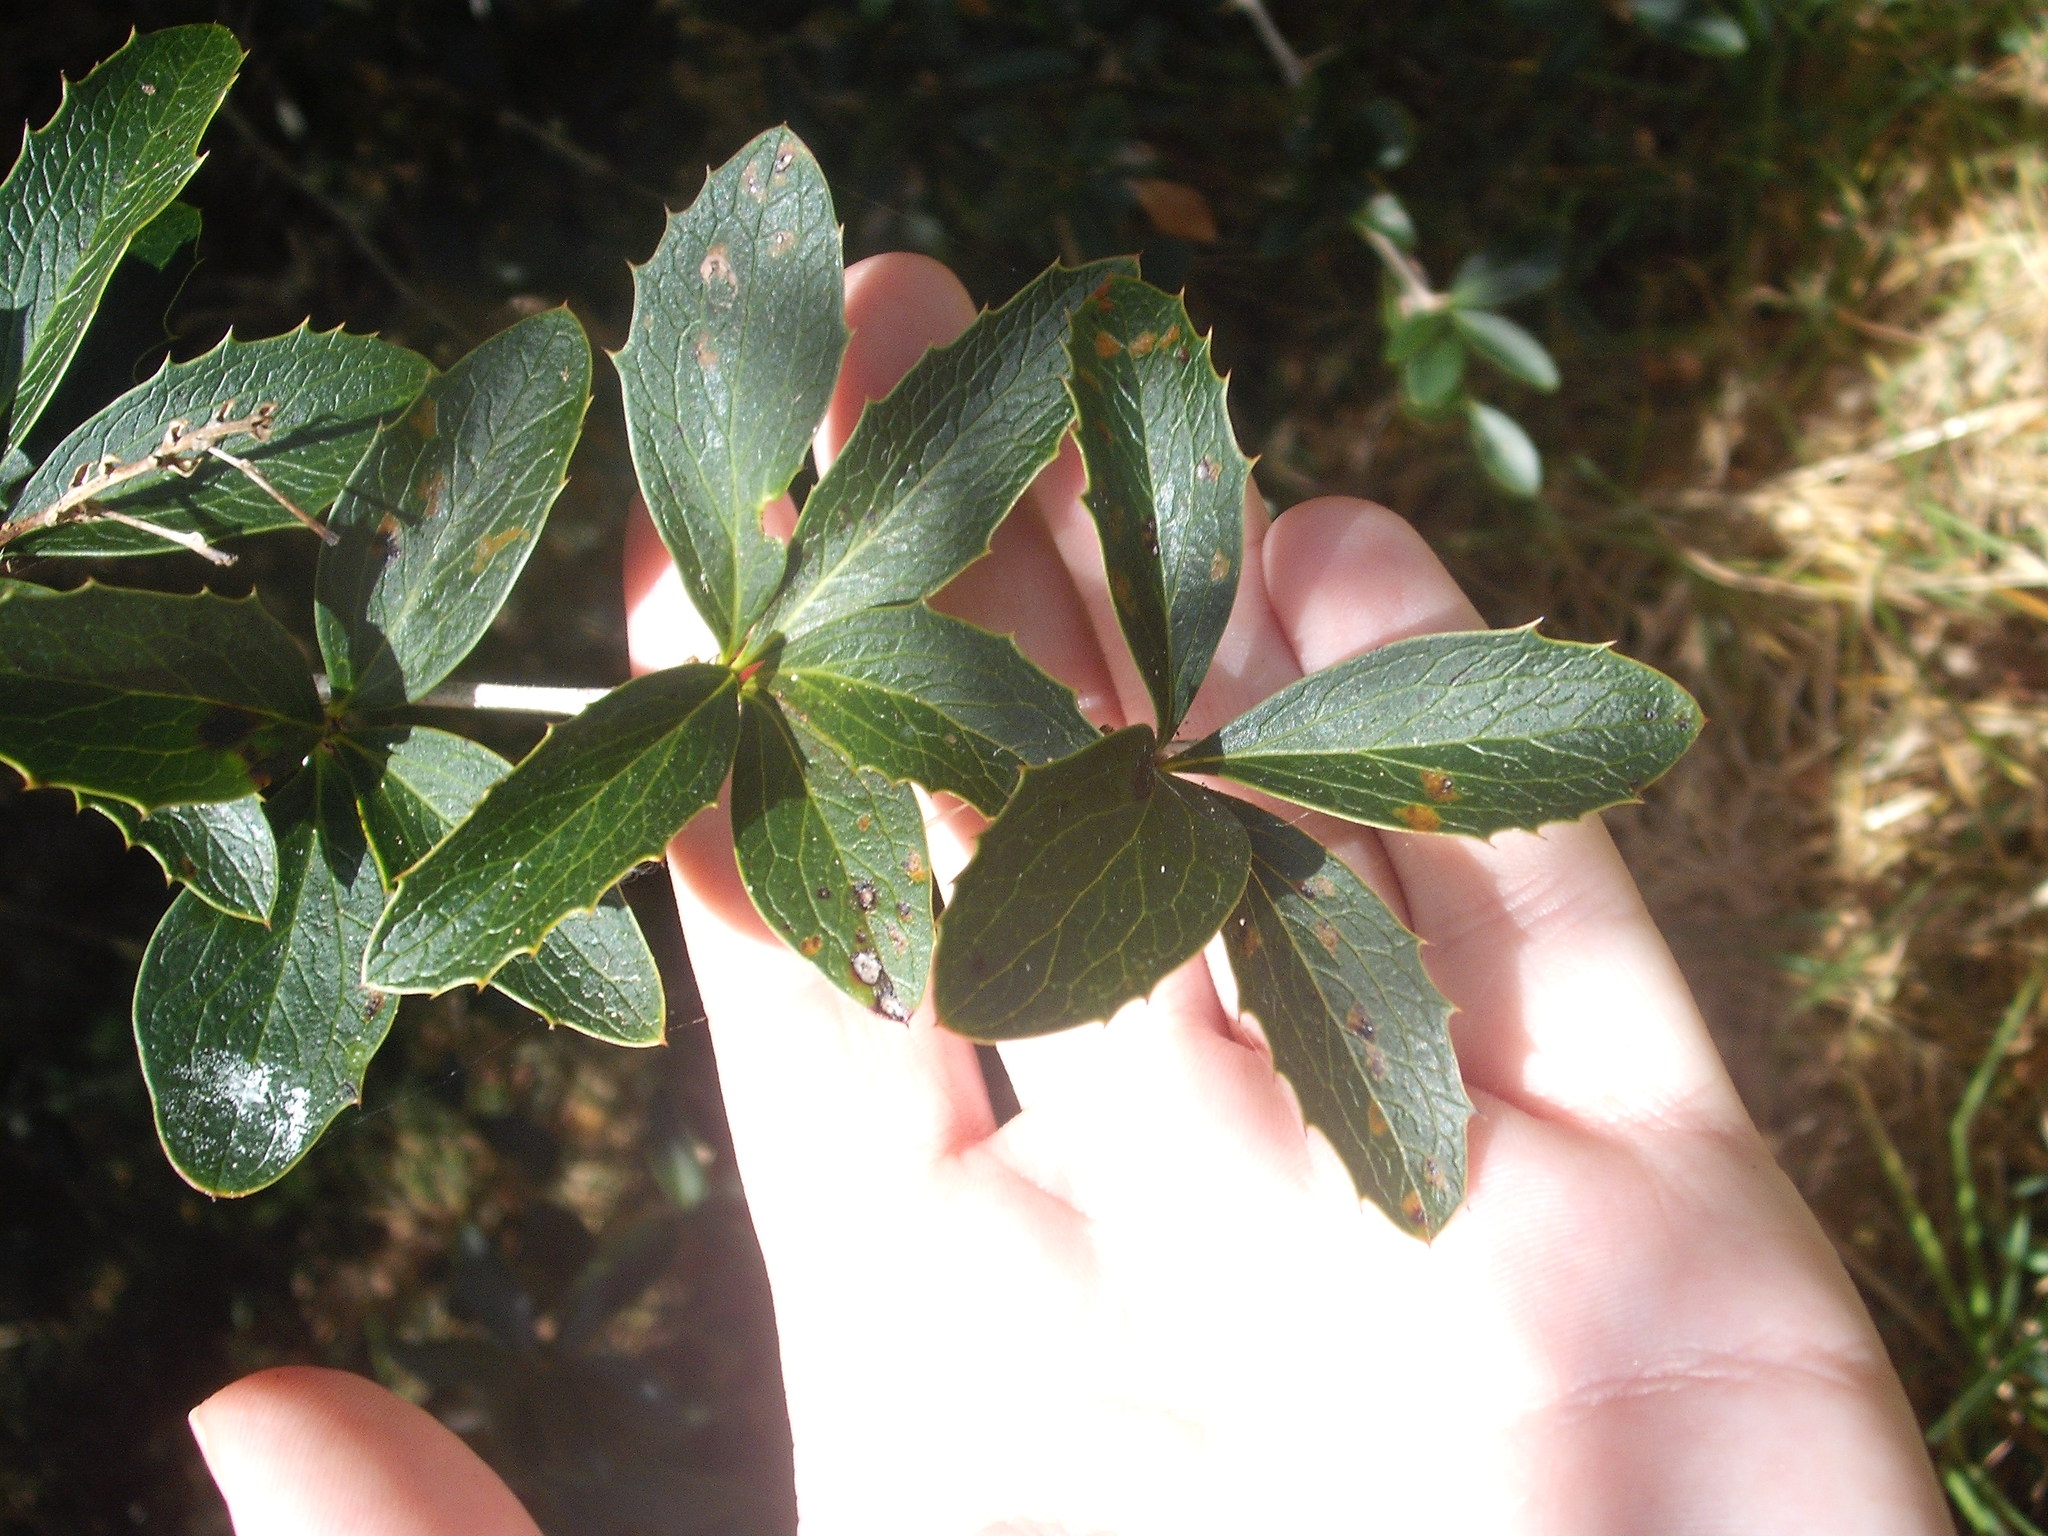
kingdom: Plantae
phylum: Tracheophyta
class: Magnoliopsida
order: Ranunculales
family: Berberidaceae
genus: Berberis
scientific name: Berberis glaucocarpa
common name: Great barberry
